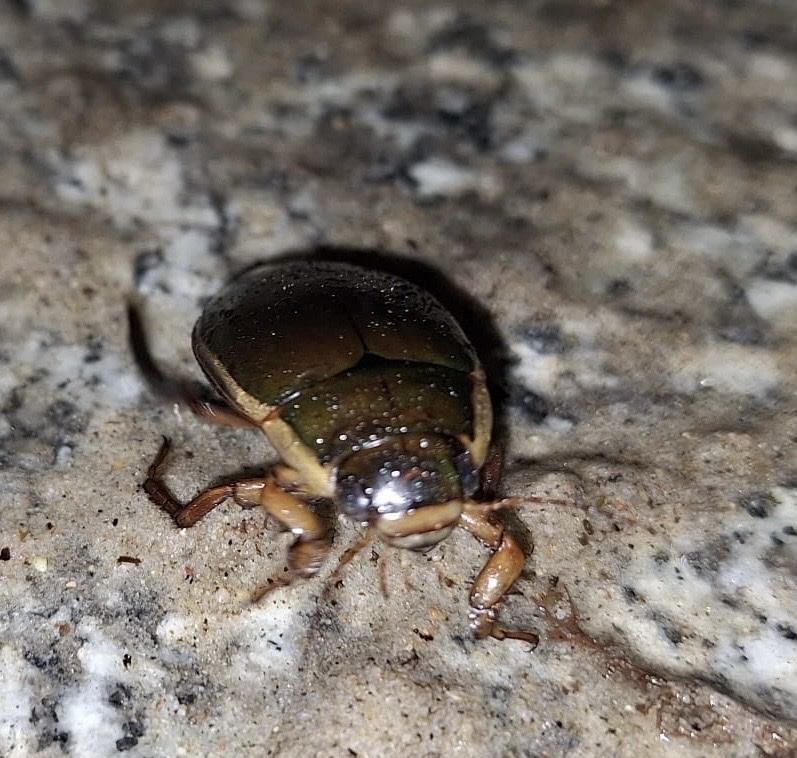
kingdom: Animalia
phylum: Arthropoda
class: Insecta
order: Coleoptera
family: Dytiscidae
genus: Dytiscus
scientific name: Dytiscus dimidiatus
